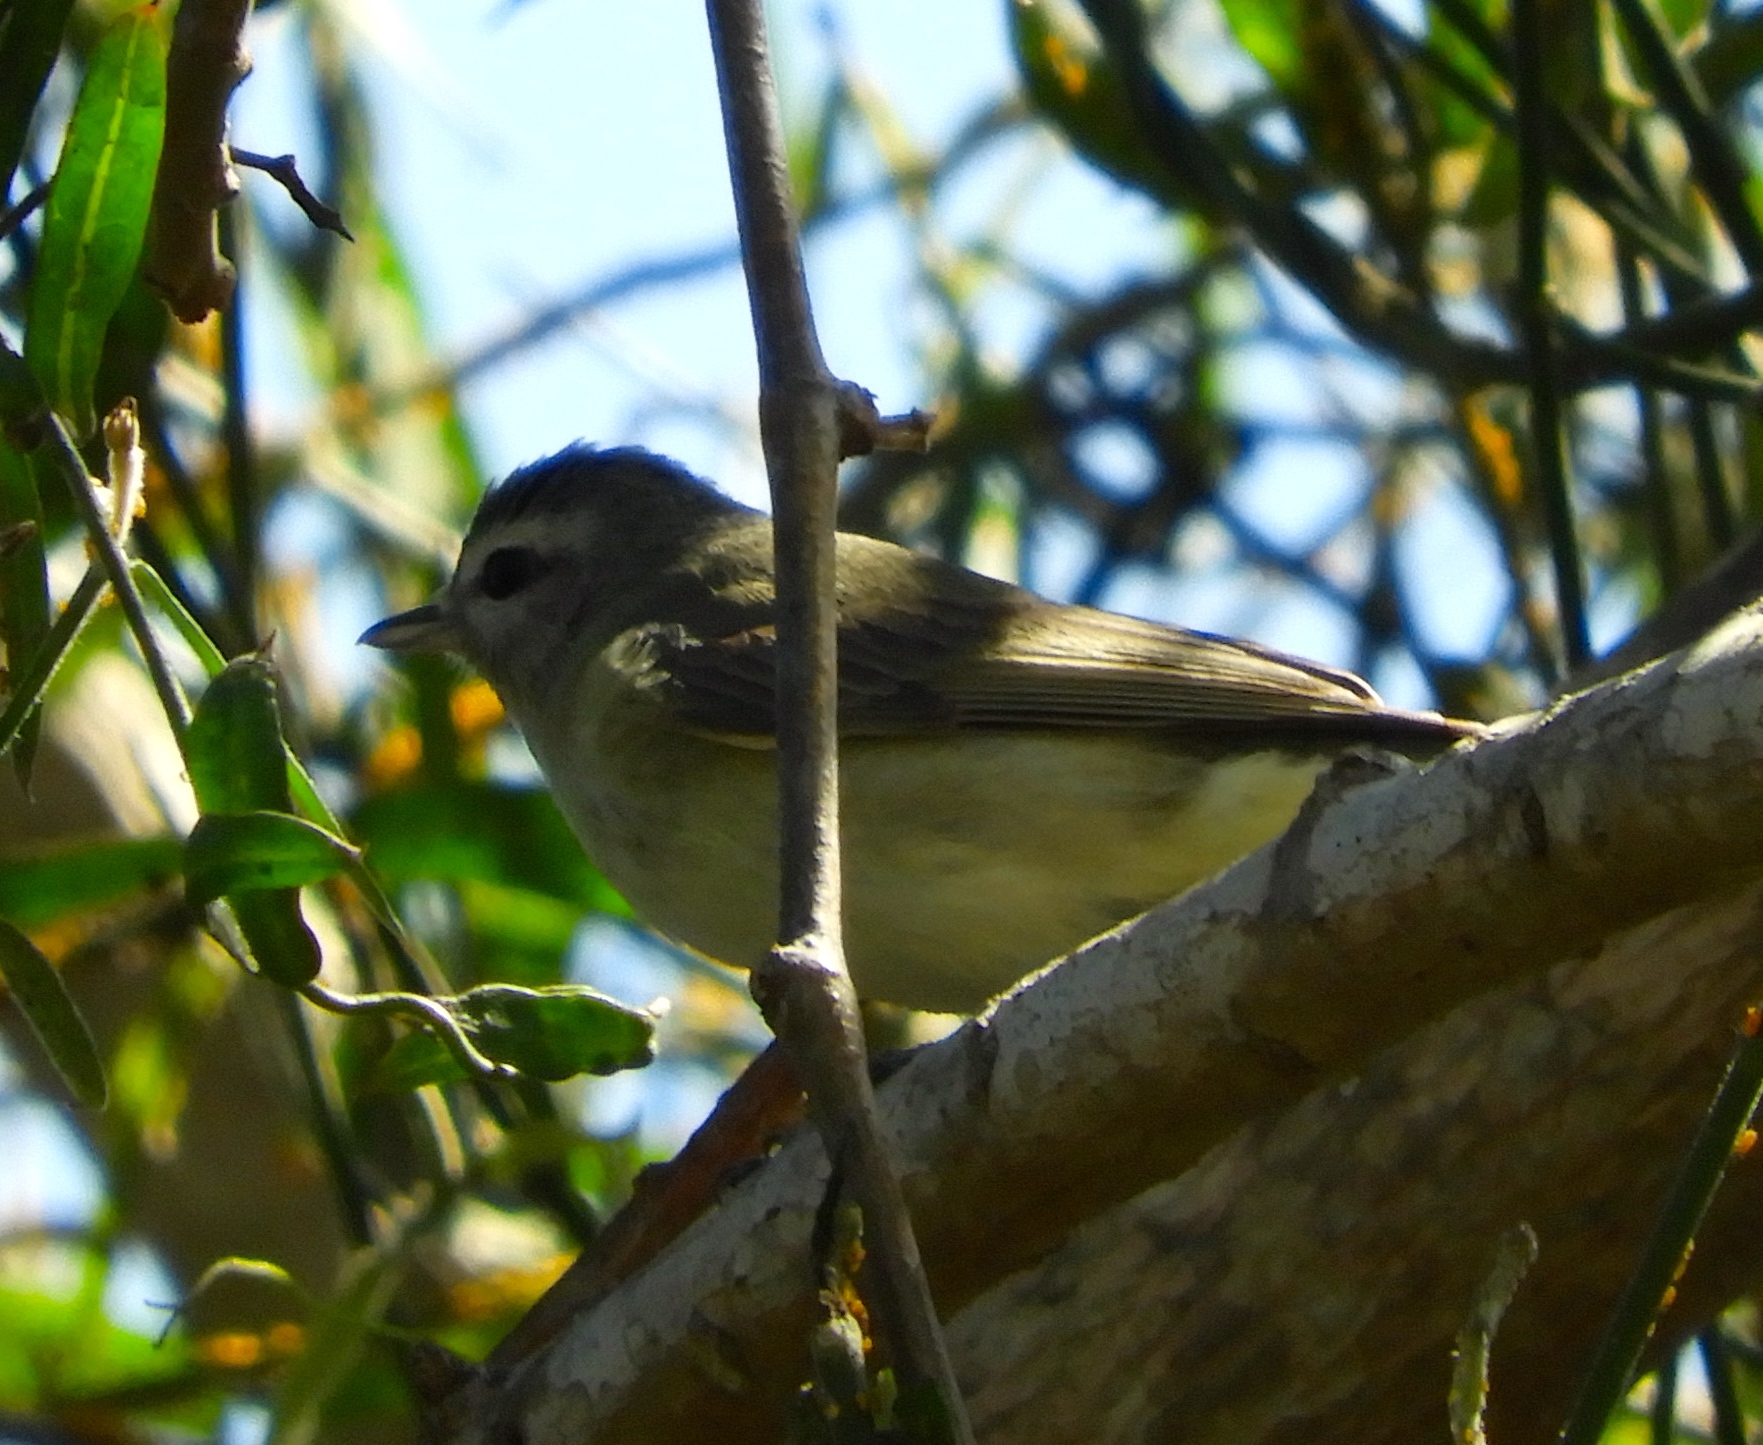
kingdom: Animalia
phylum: Chordata
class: Aves
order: Passeriformes
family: Vireonidae
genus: Vireo
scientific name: Vireo gilvus
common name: Warbling vireo
